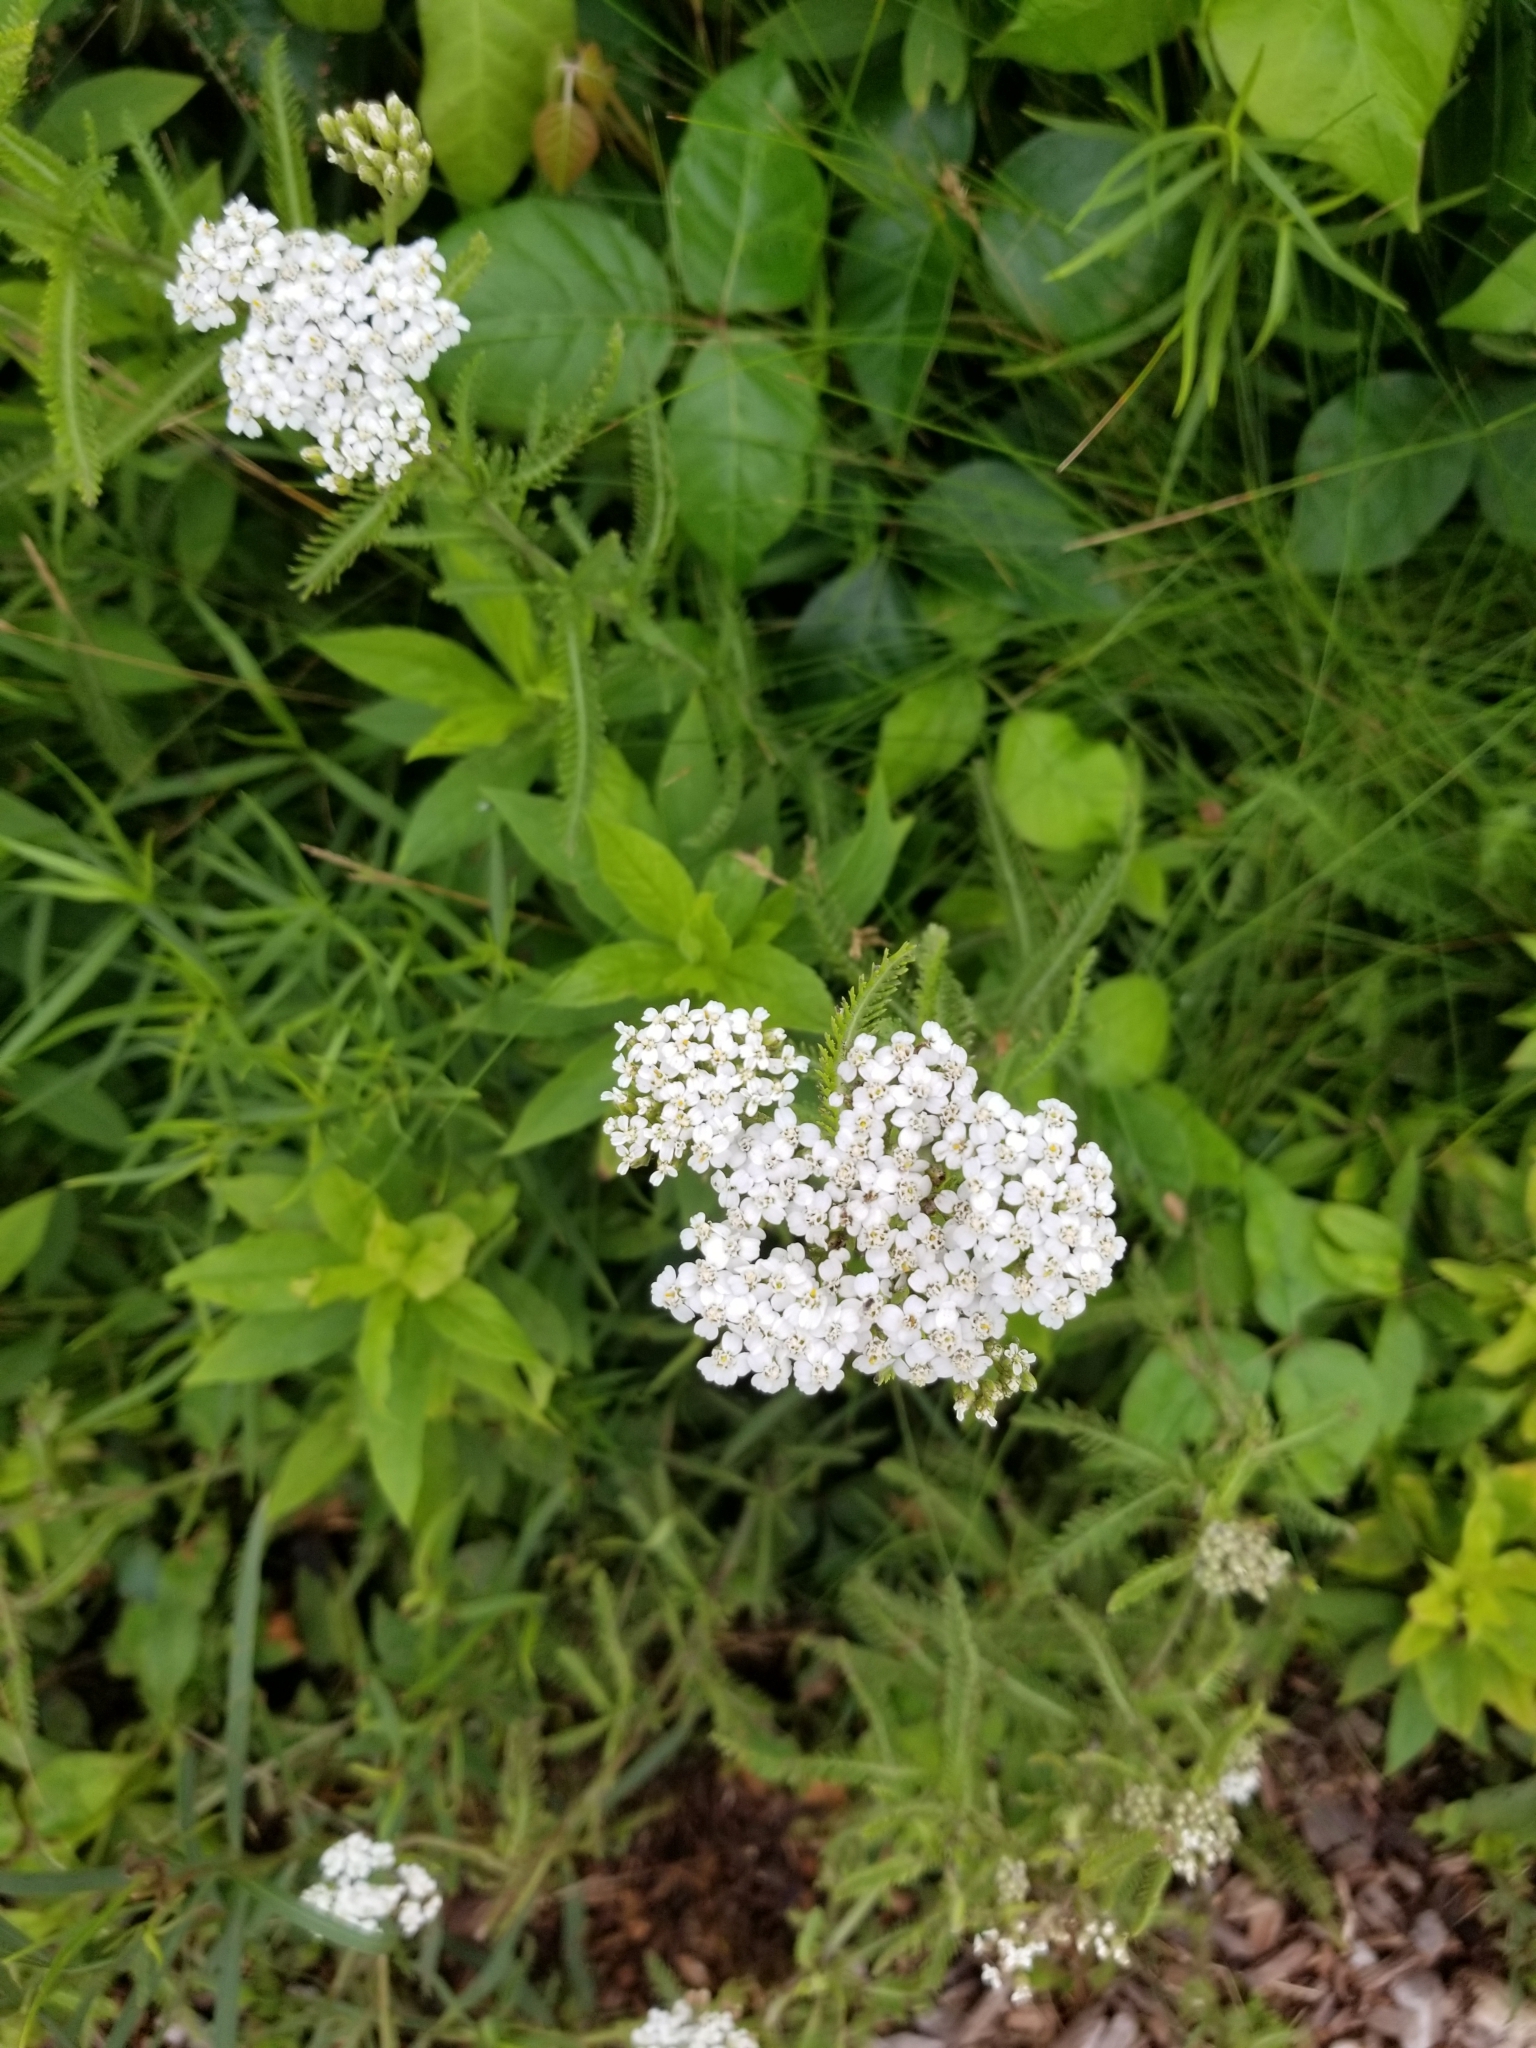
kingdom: Plantae
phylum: Tracheophyta
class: Magnoliopsida
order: Asterales
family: Asteraceae
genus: Achillea
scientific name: Achillea millefolium
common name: Yarrow
